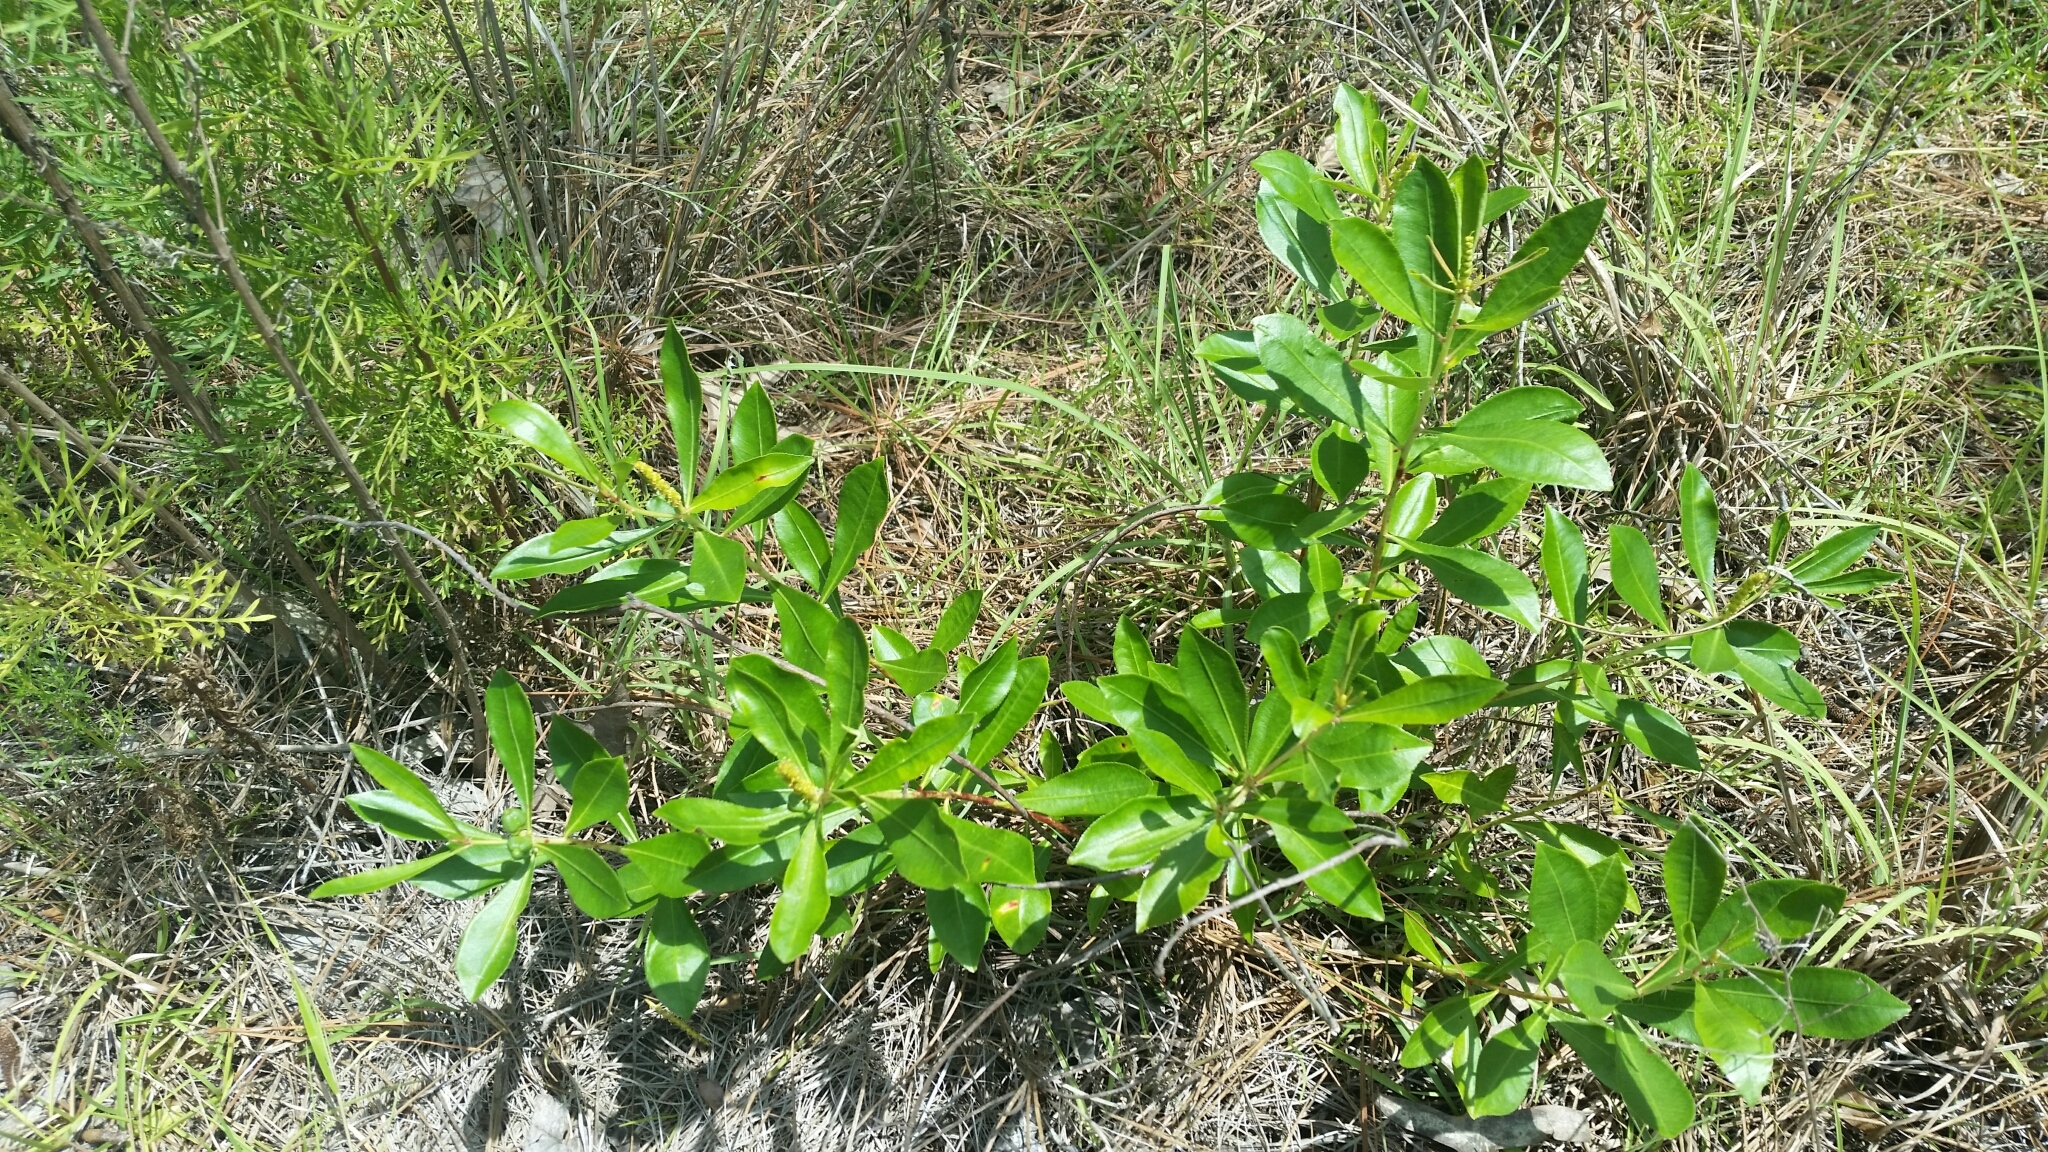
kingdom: Plantae
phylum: Tracheophyta
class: Magnoliopsida
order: Malpighiales
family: Euphorbiaceae
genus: Stillingia
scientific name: Stillingia sylvatica
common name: Queen's-delight
